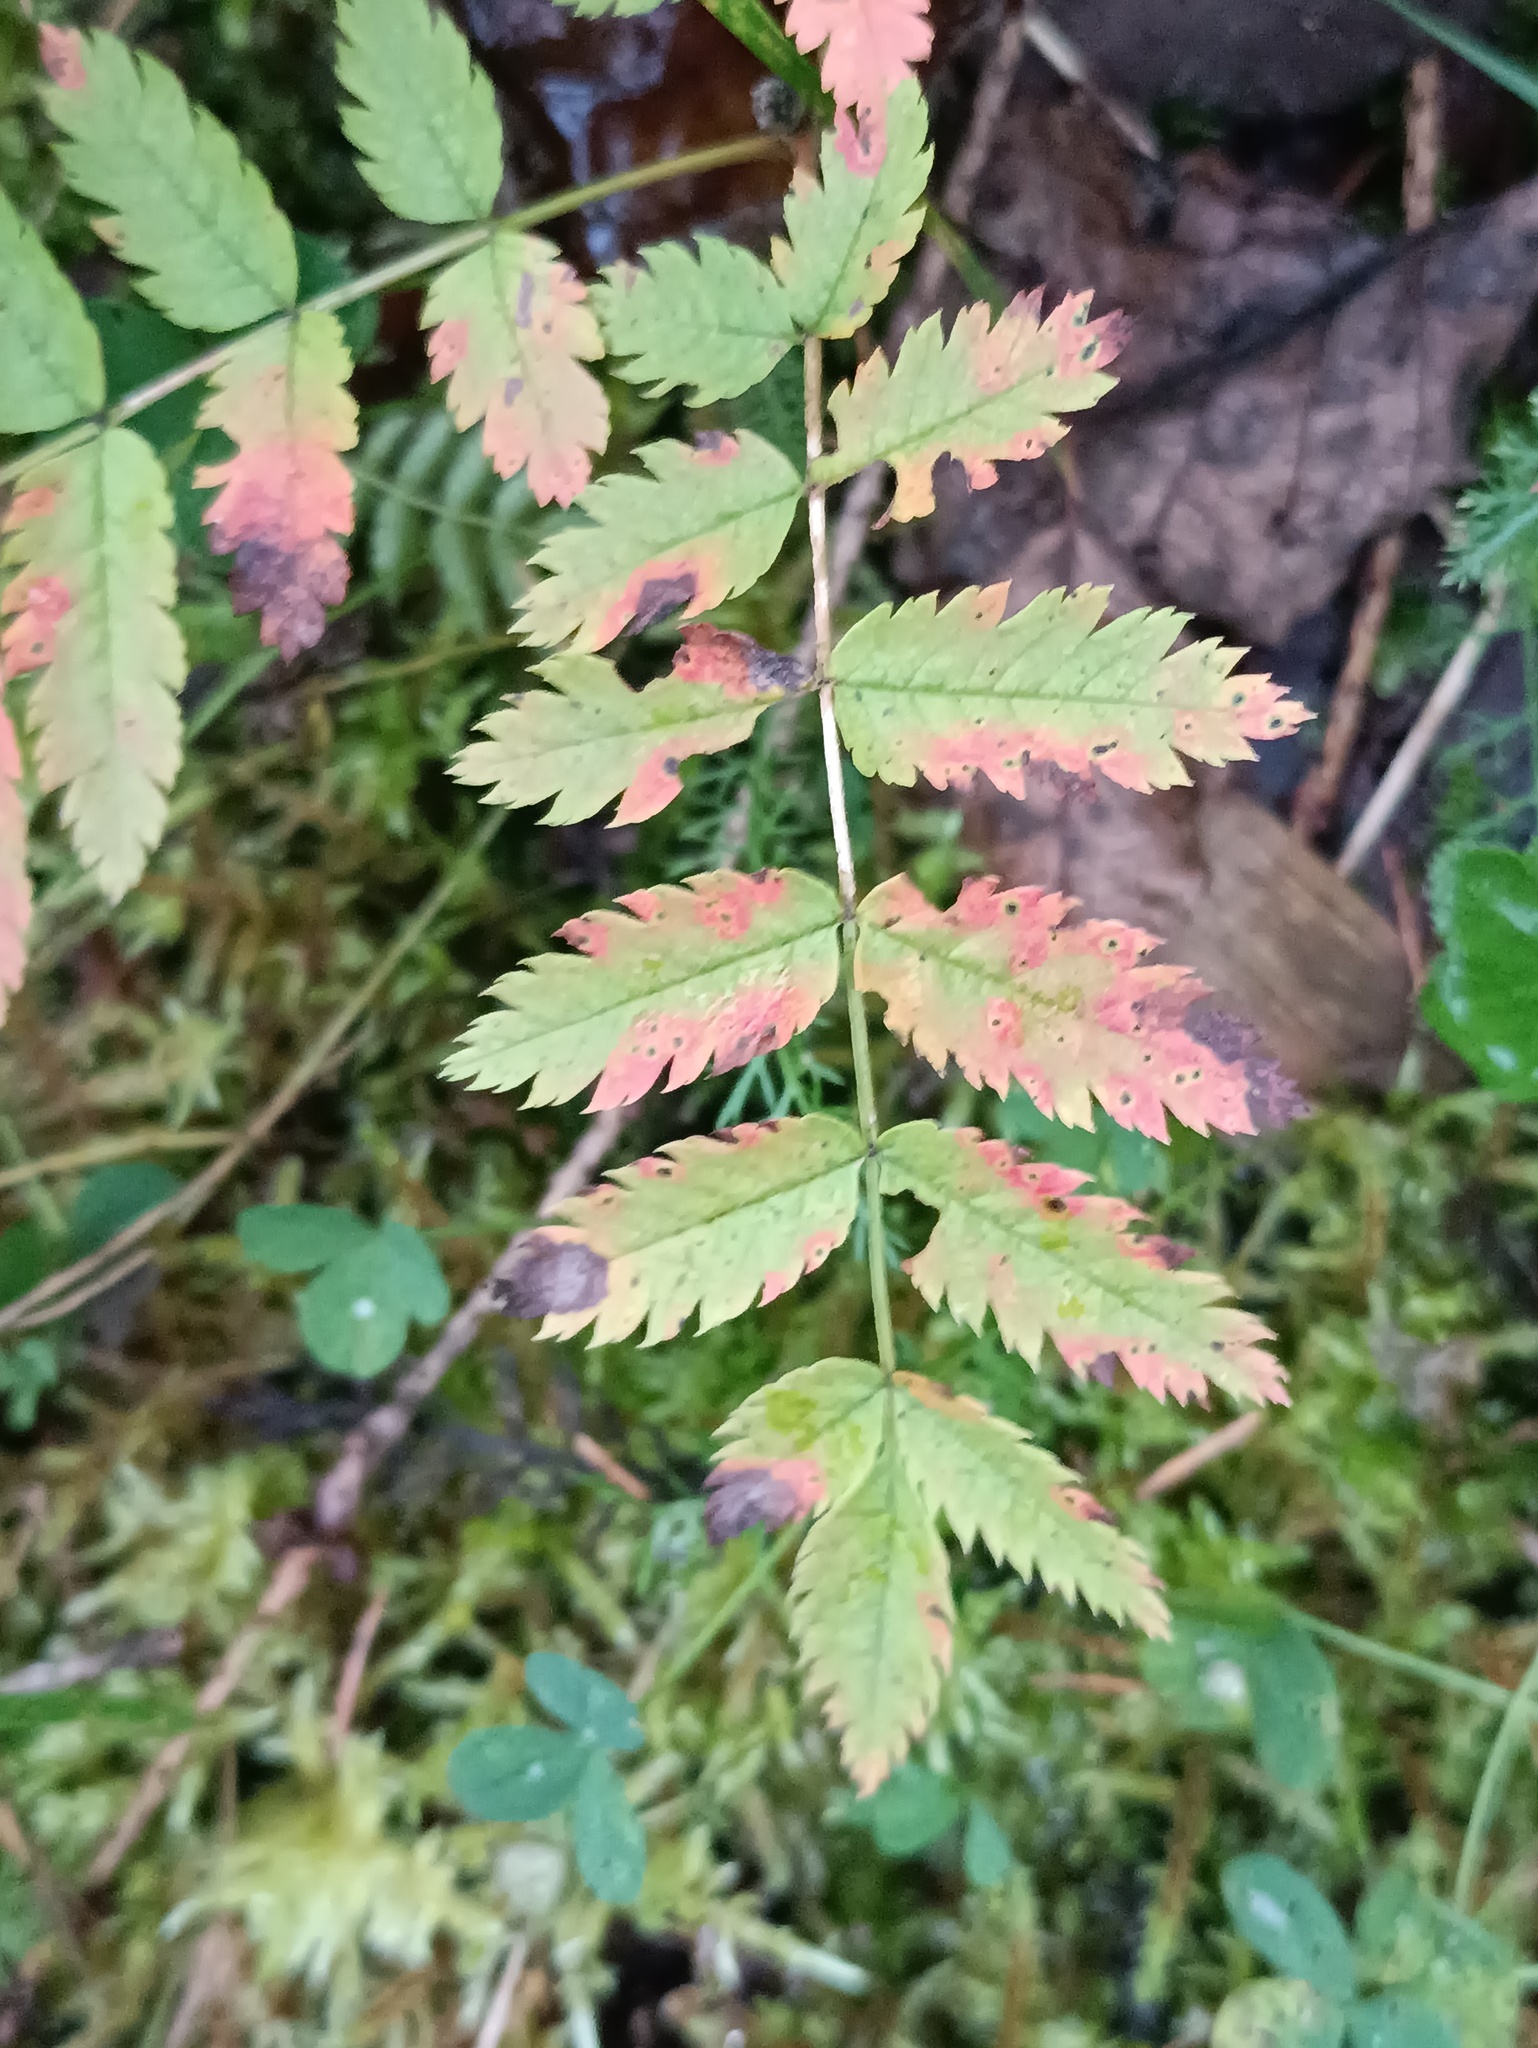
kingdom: Plantae
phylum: Tracheophyta
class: Magnoliopsida
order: Rosales
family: Rosaceae
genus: Sorbus
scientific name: Sorbus aucuparia
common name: Rowan
